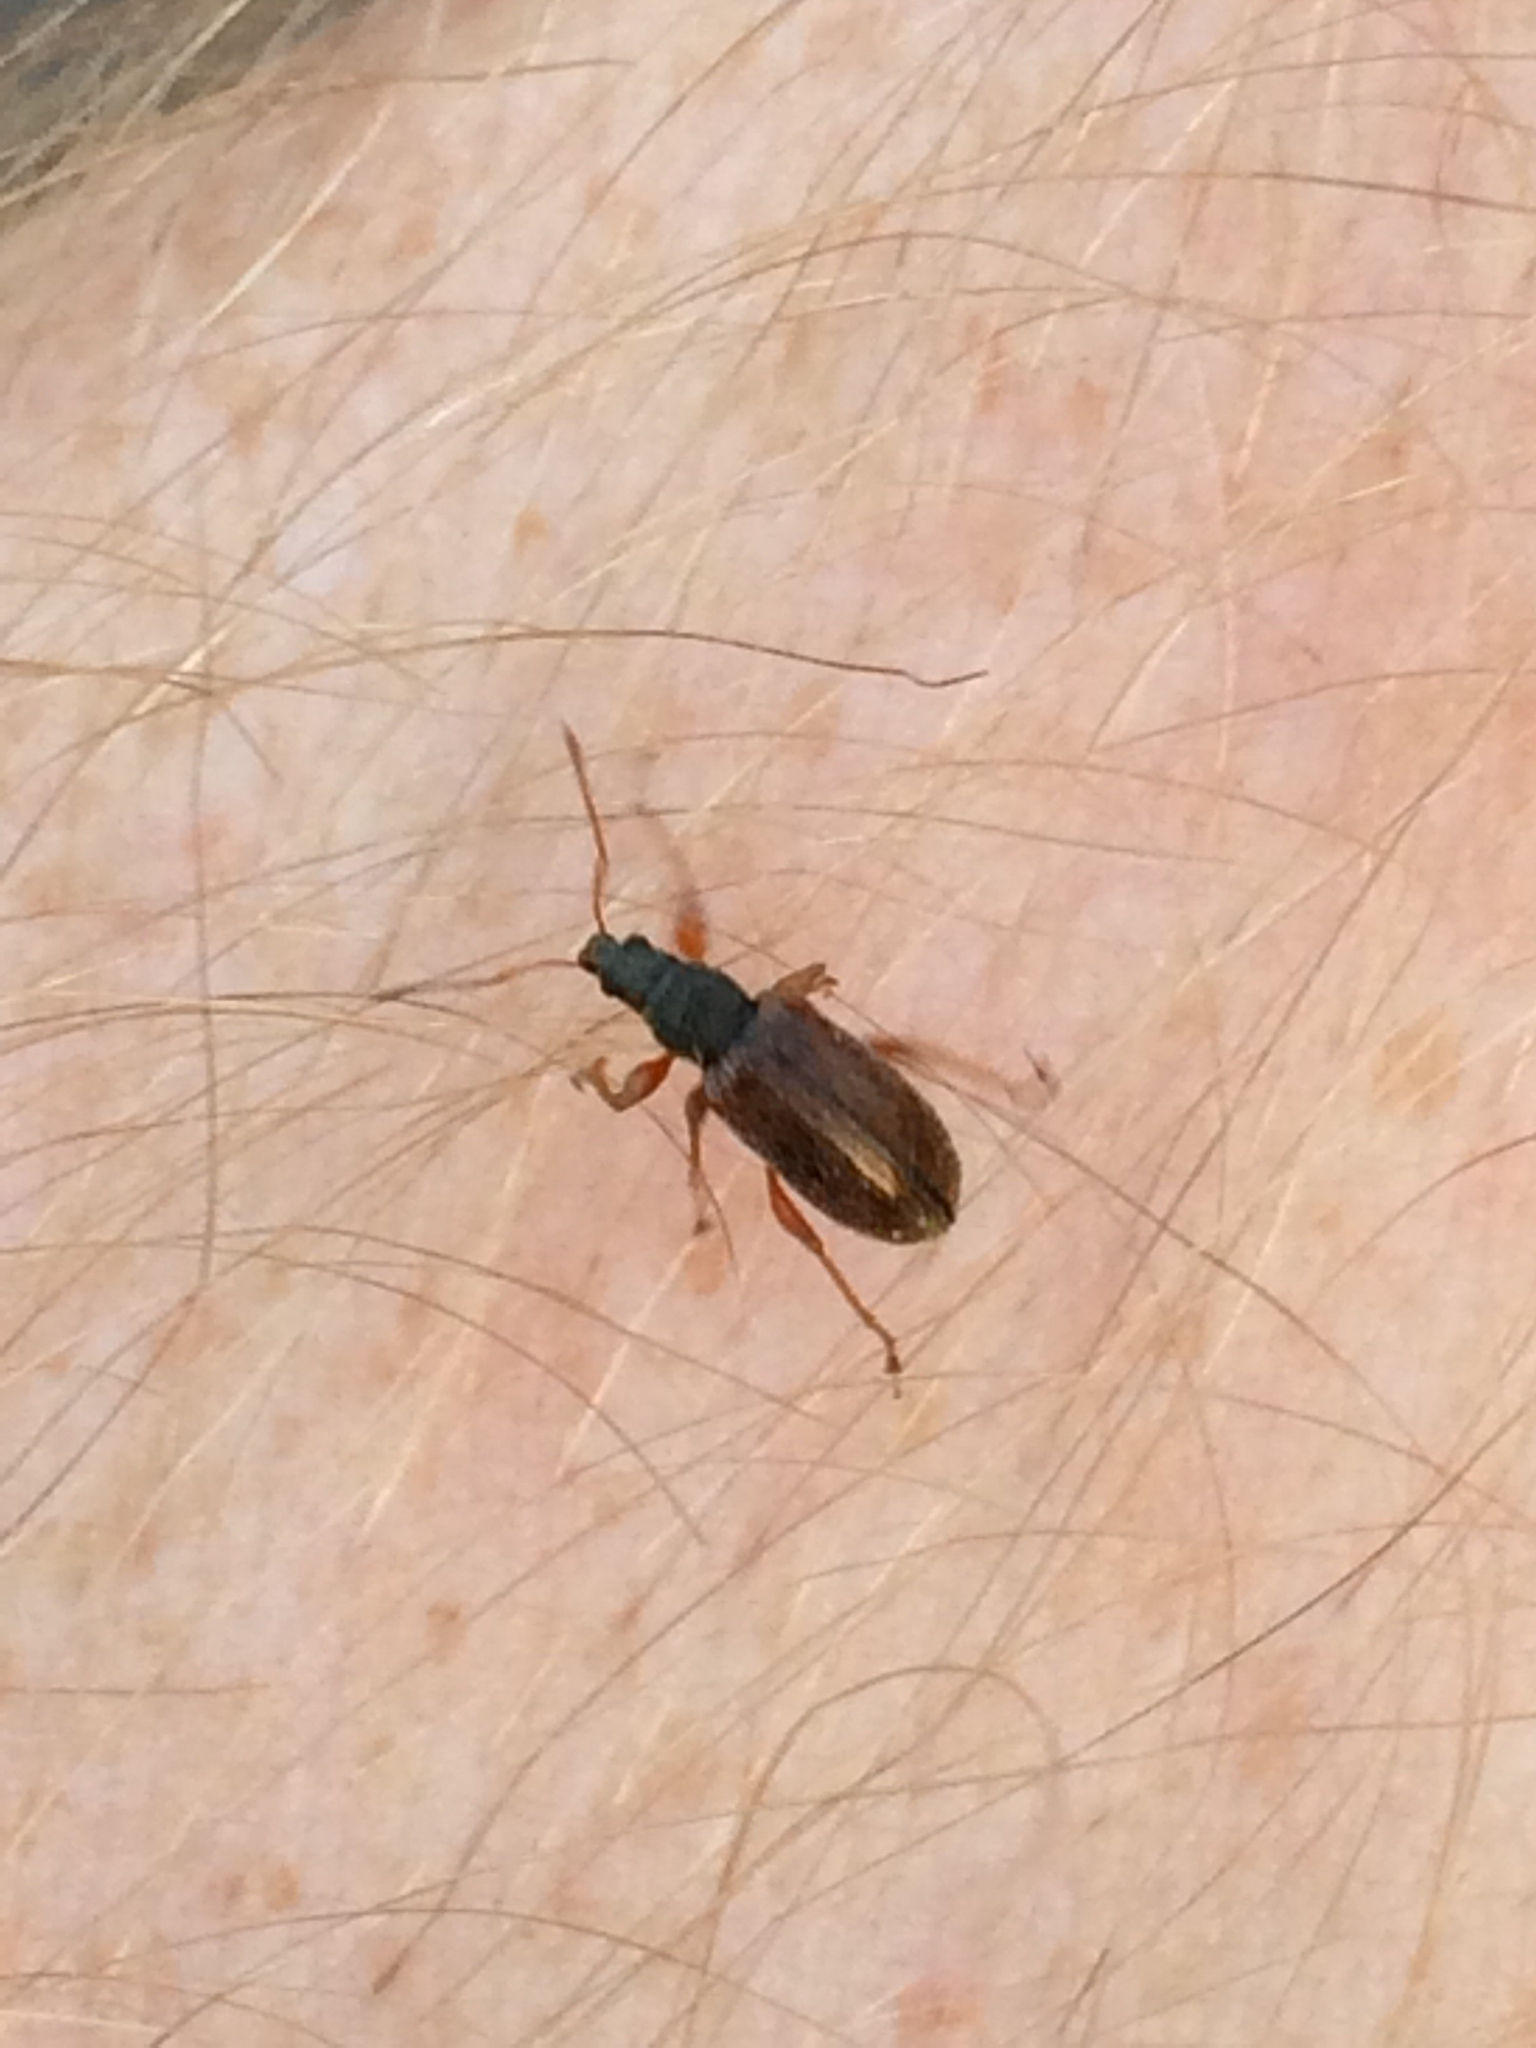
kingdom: Animalia
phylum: Arthropoda
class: Insecta
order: Coleoptera
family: Curculionidae
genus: Phyllobius
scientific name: Phyllobius oblongus
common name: Brown leaf weevil
